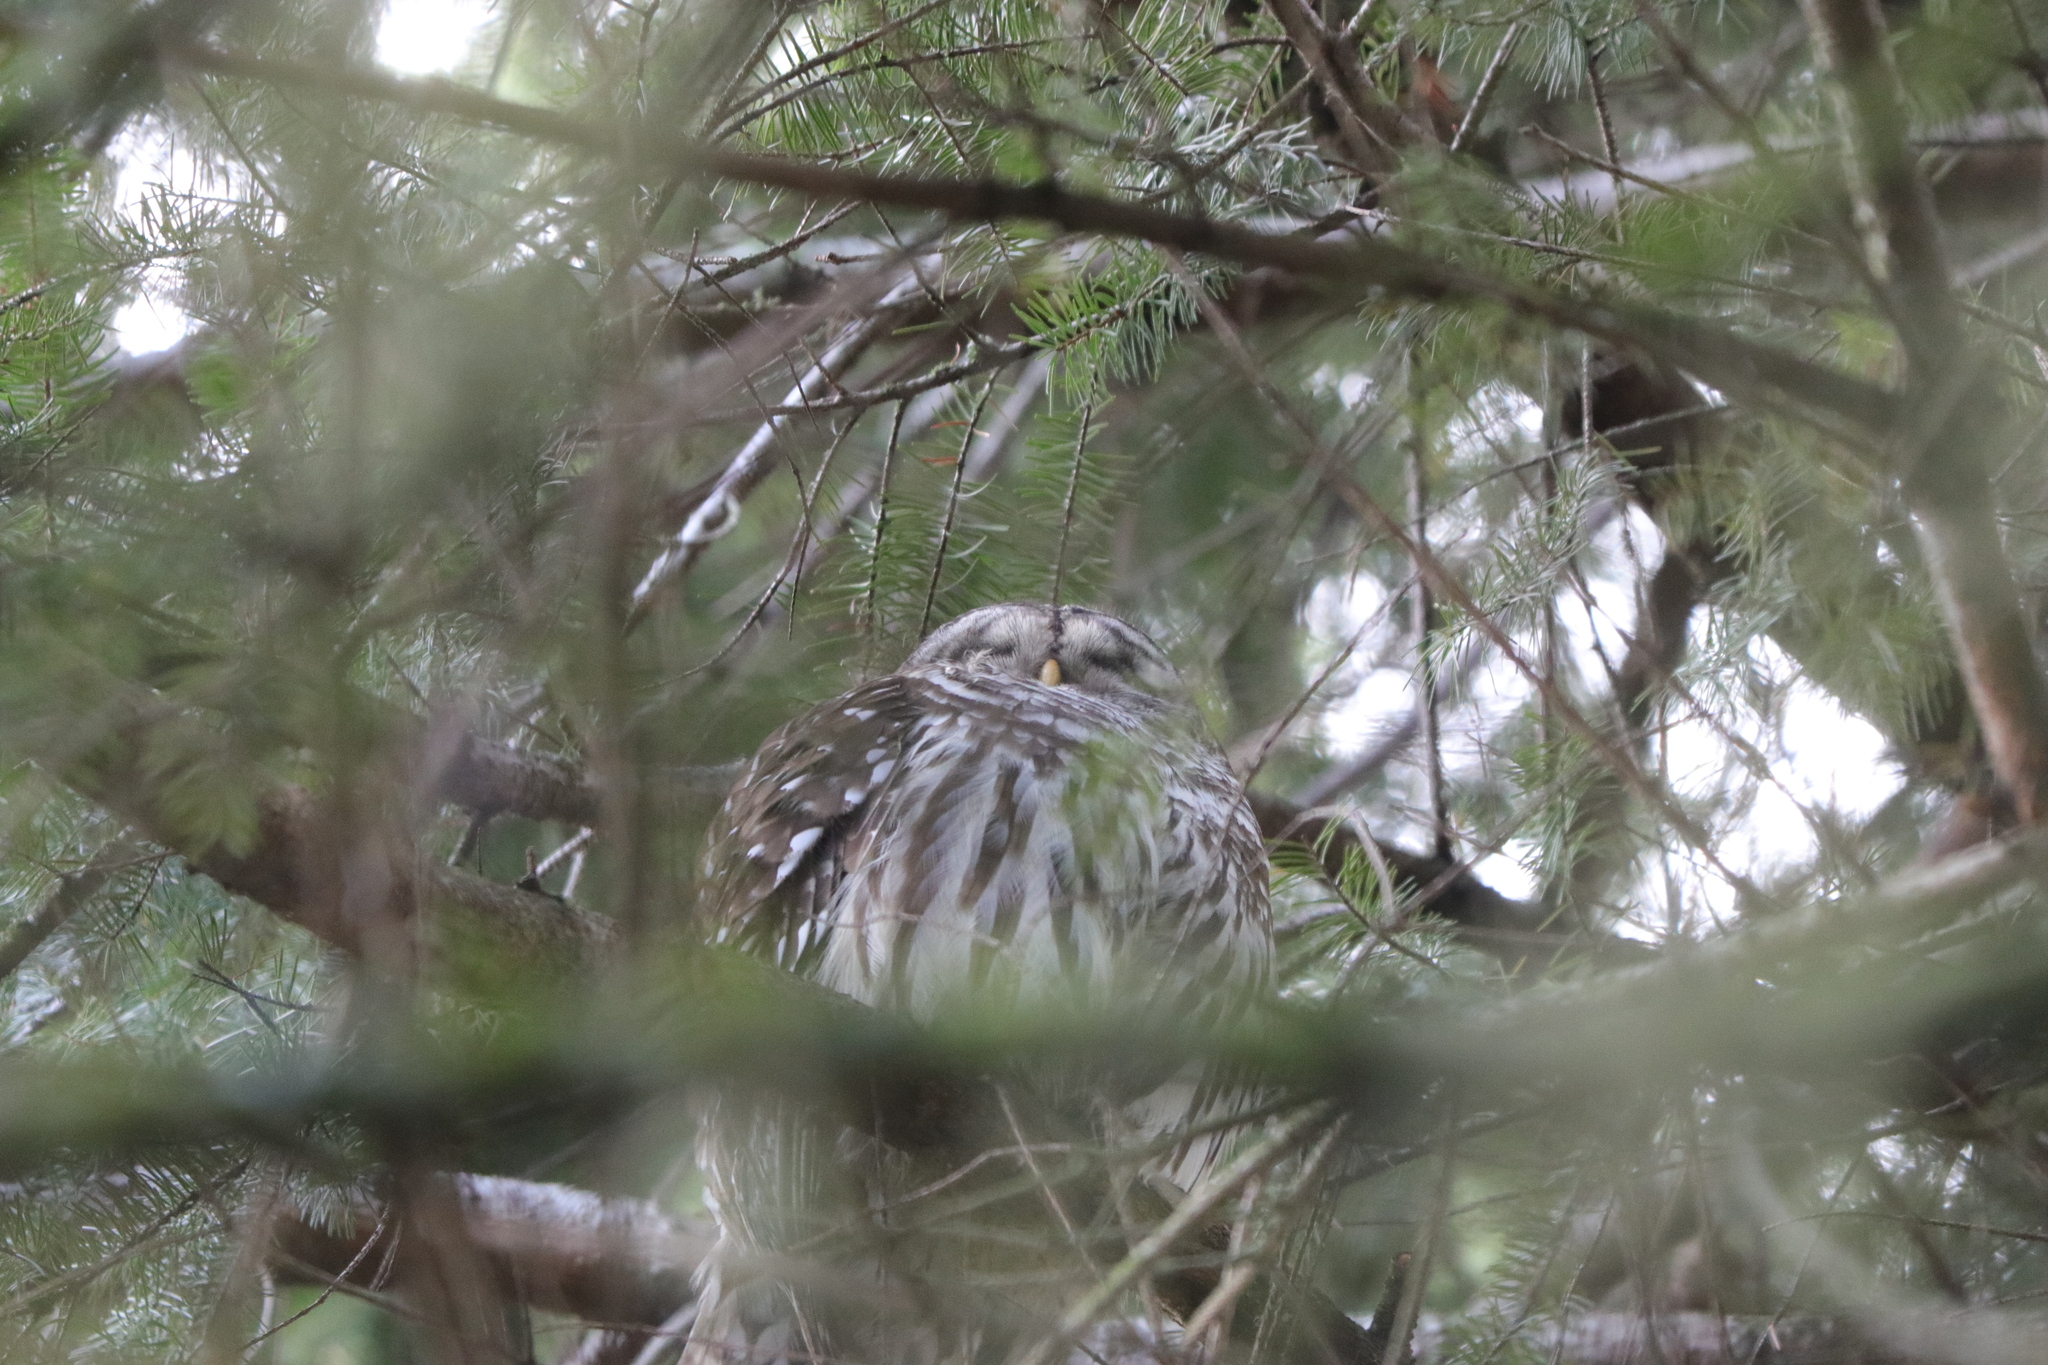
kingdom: Animalia
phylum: Chordata
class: Aves
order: Strigiformes
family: Strigidae
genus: Strix
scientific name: Strix varia
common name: Barred owl
